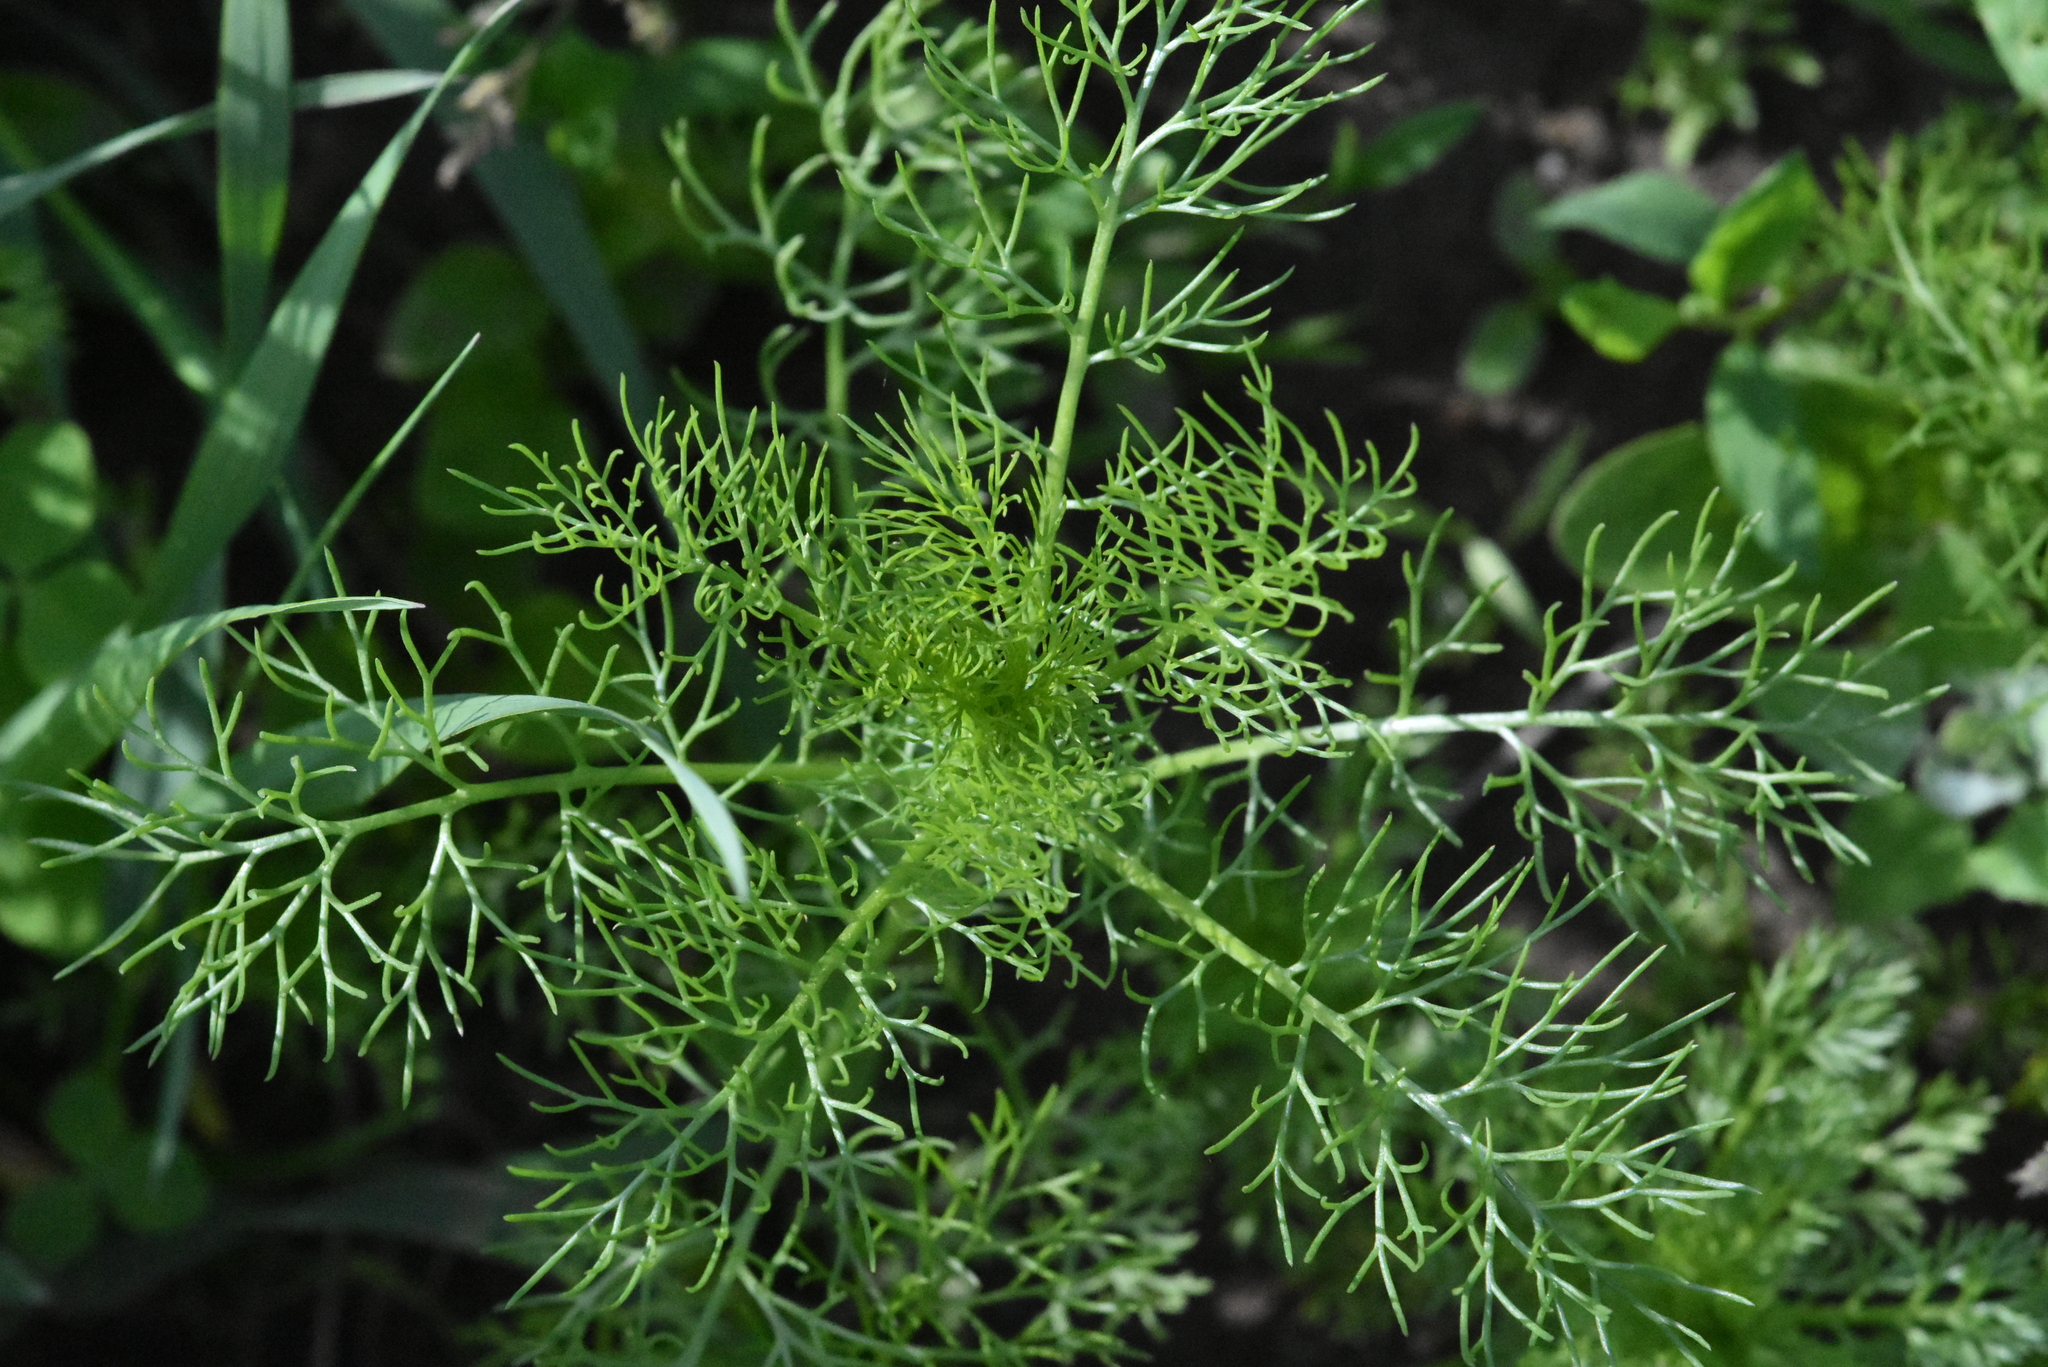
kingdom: Plantae
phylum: Tracheophyta
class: Magnoliopsida
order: Asterales
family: Asteraceae
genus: Tripleurospermum
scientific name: Tripleurospermum inodorum
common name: Scentless mayweed
